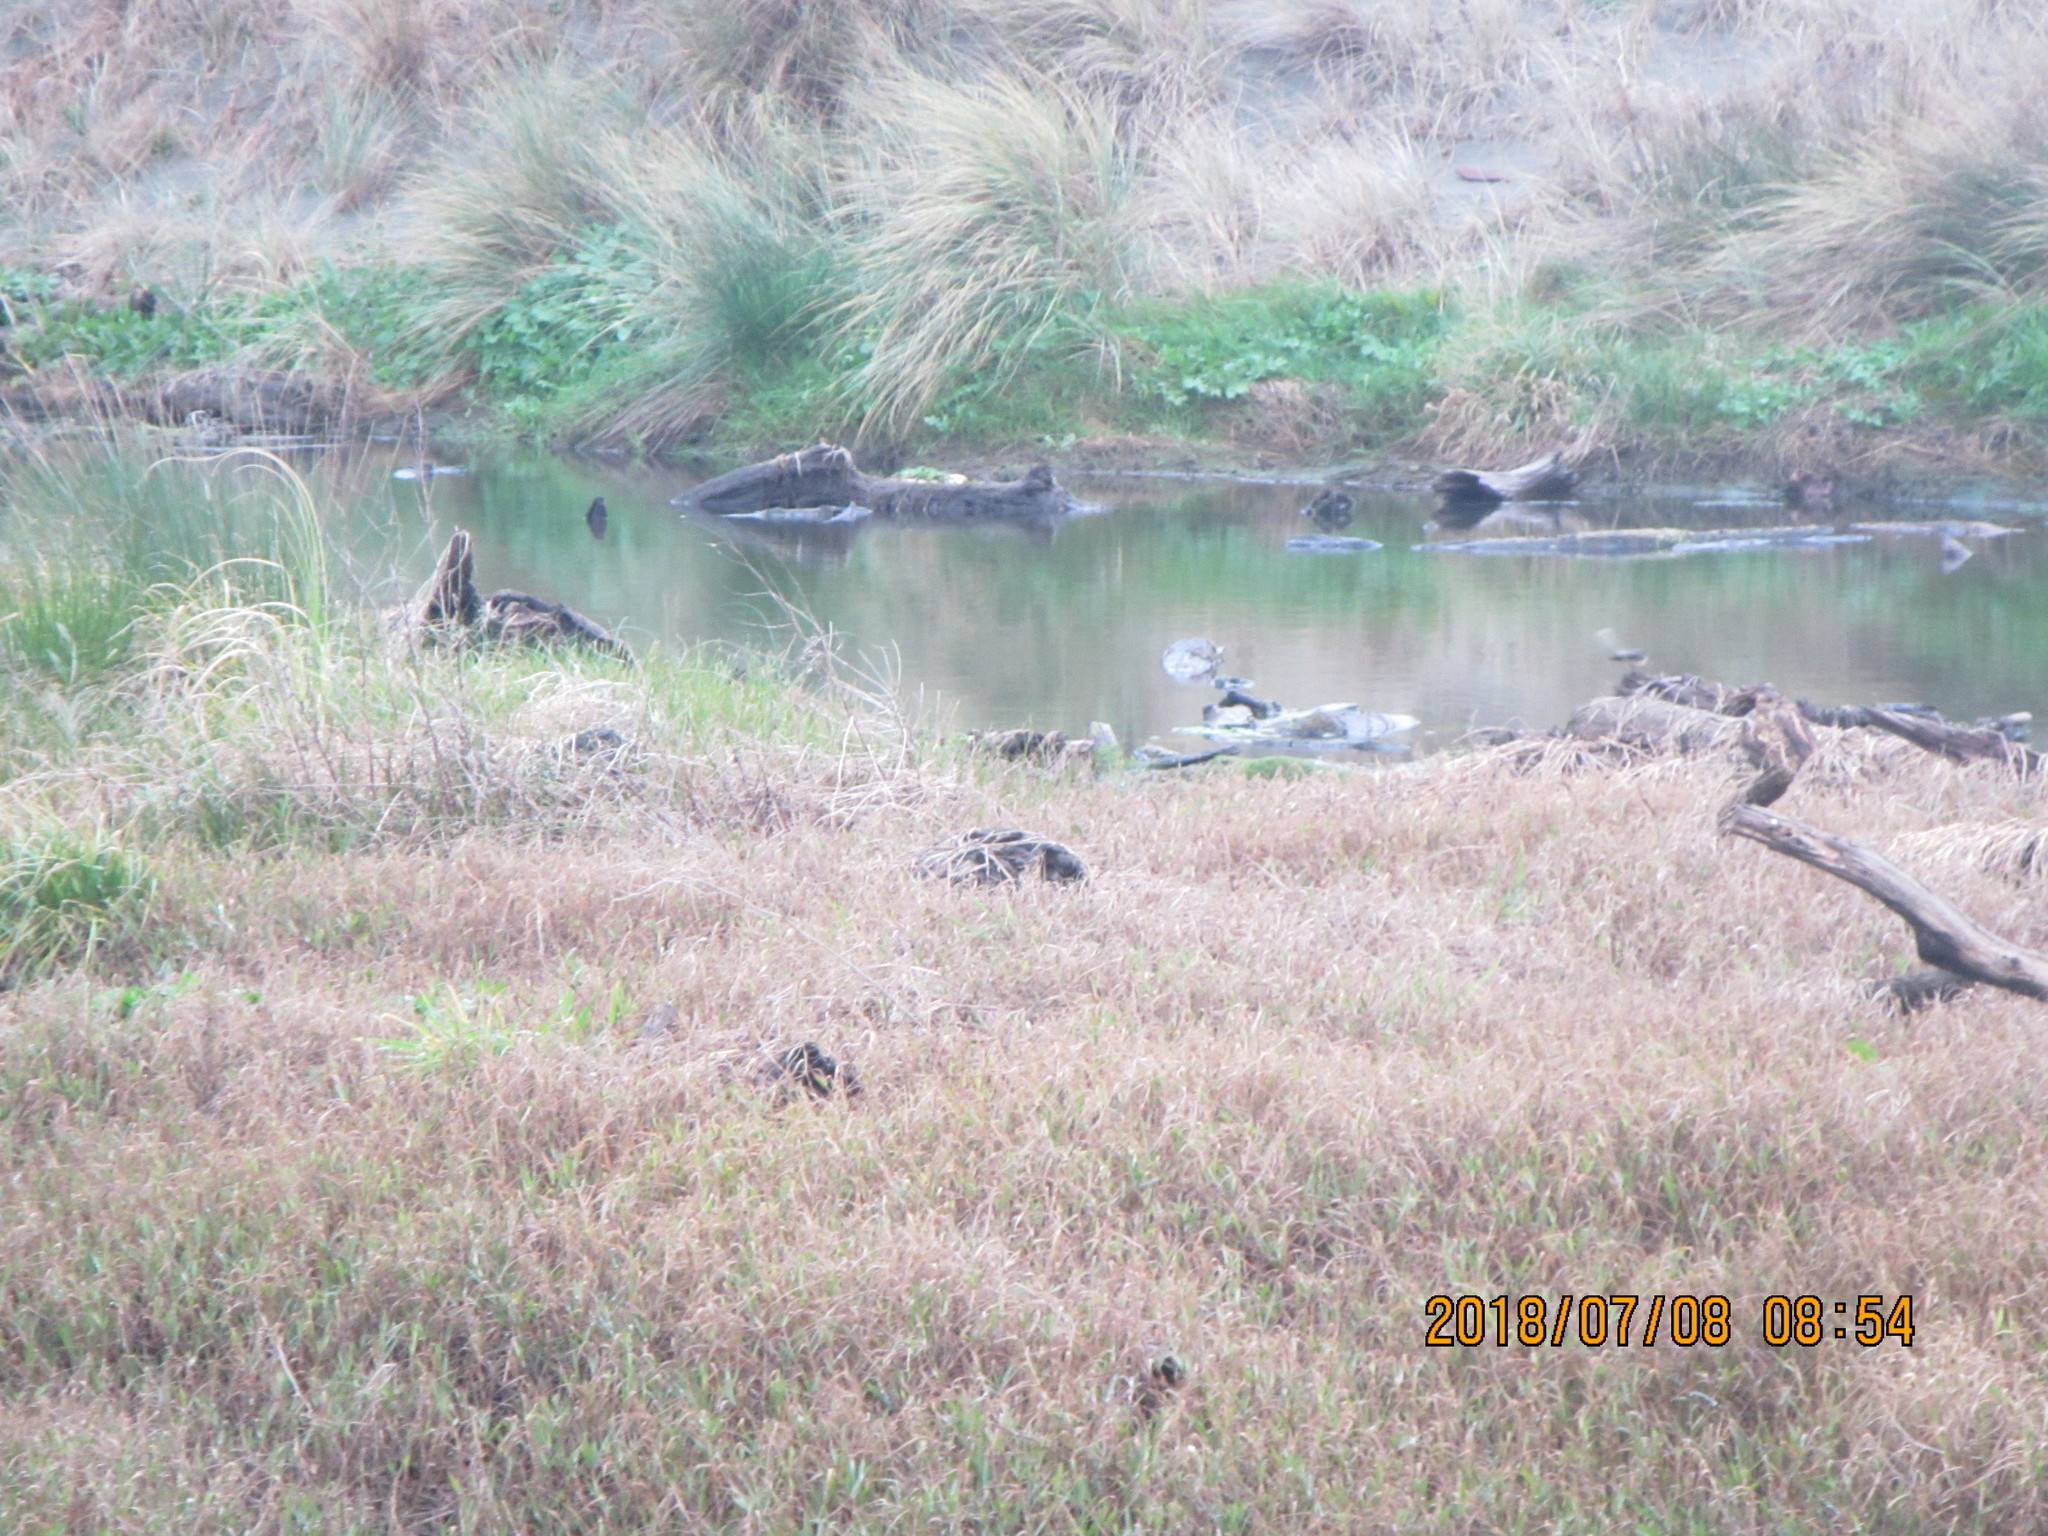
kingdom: Animalia
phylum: Chordata
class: Aves
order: Passeriformes
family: Rhipiduridae
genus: Rhipidura
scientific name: Rhipidura fuliginosa
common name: New zealand fantail
